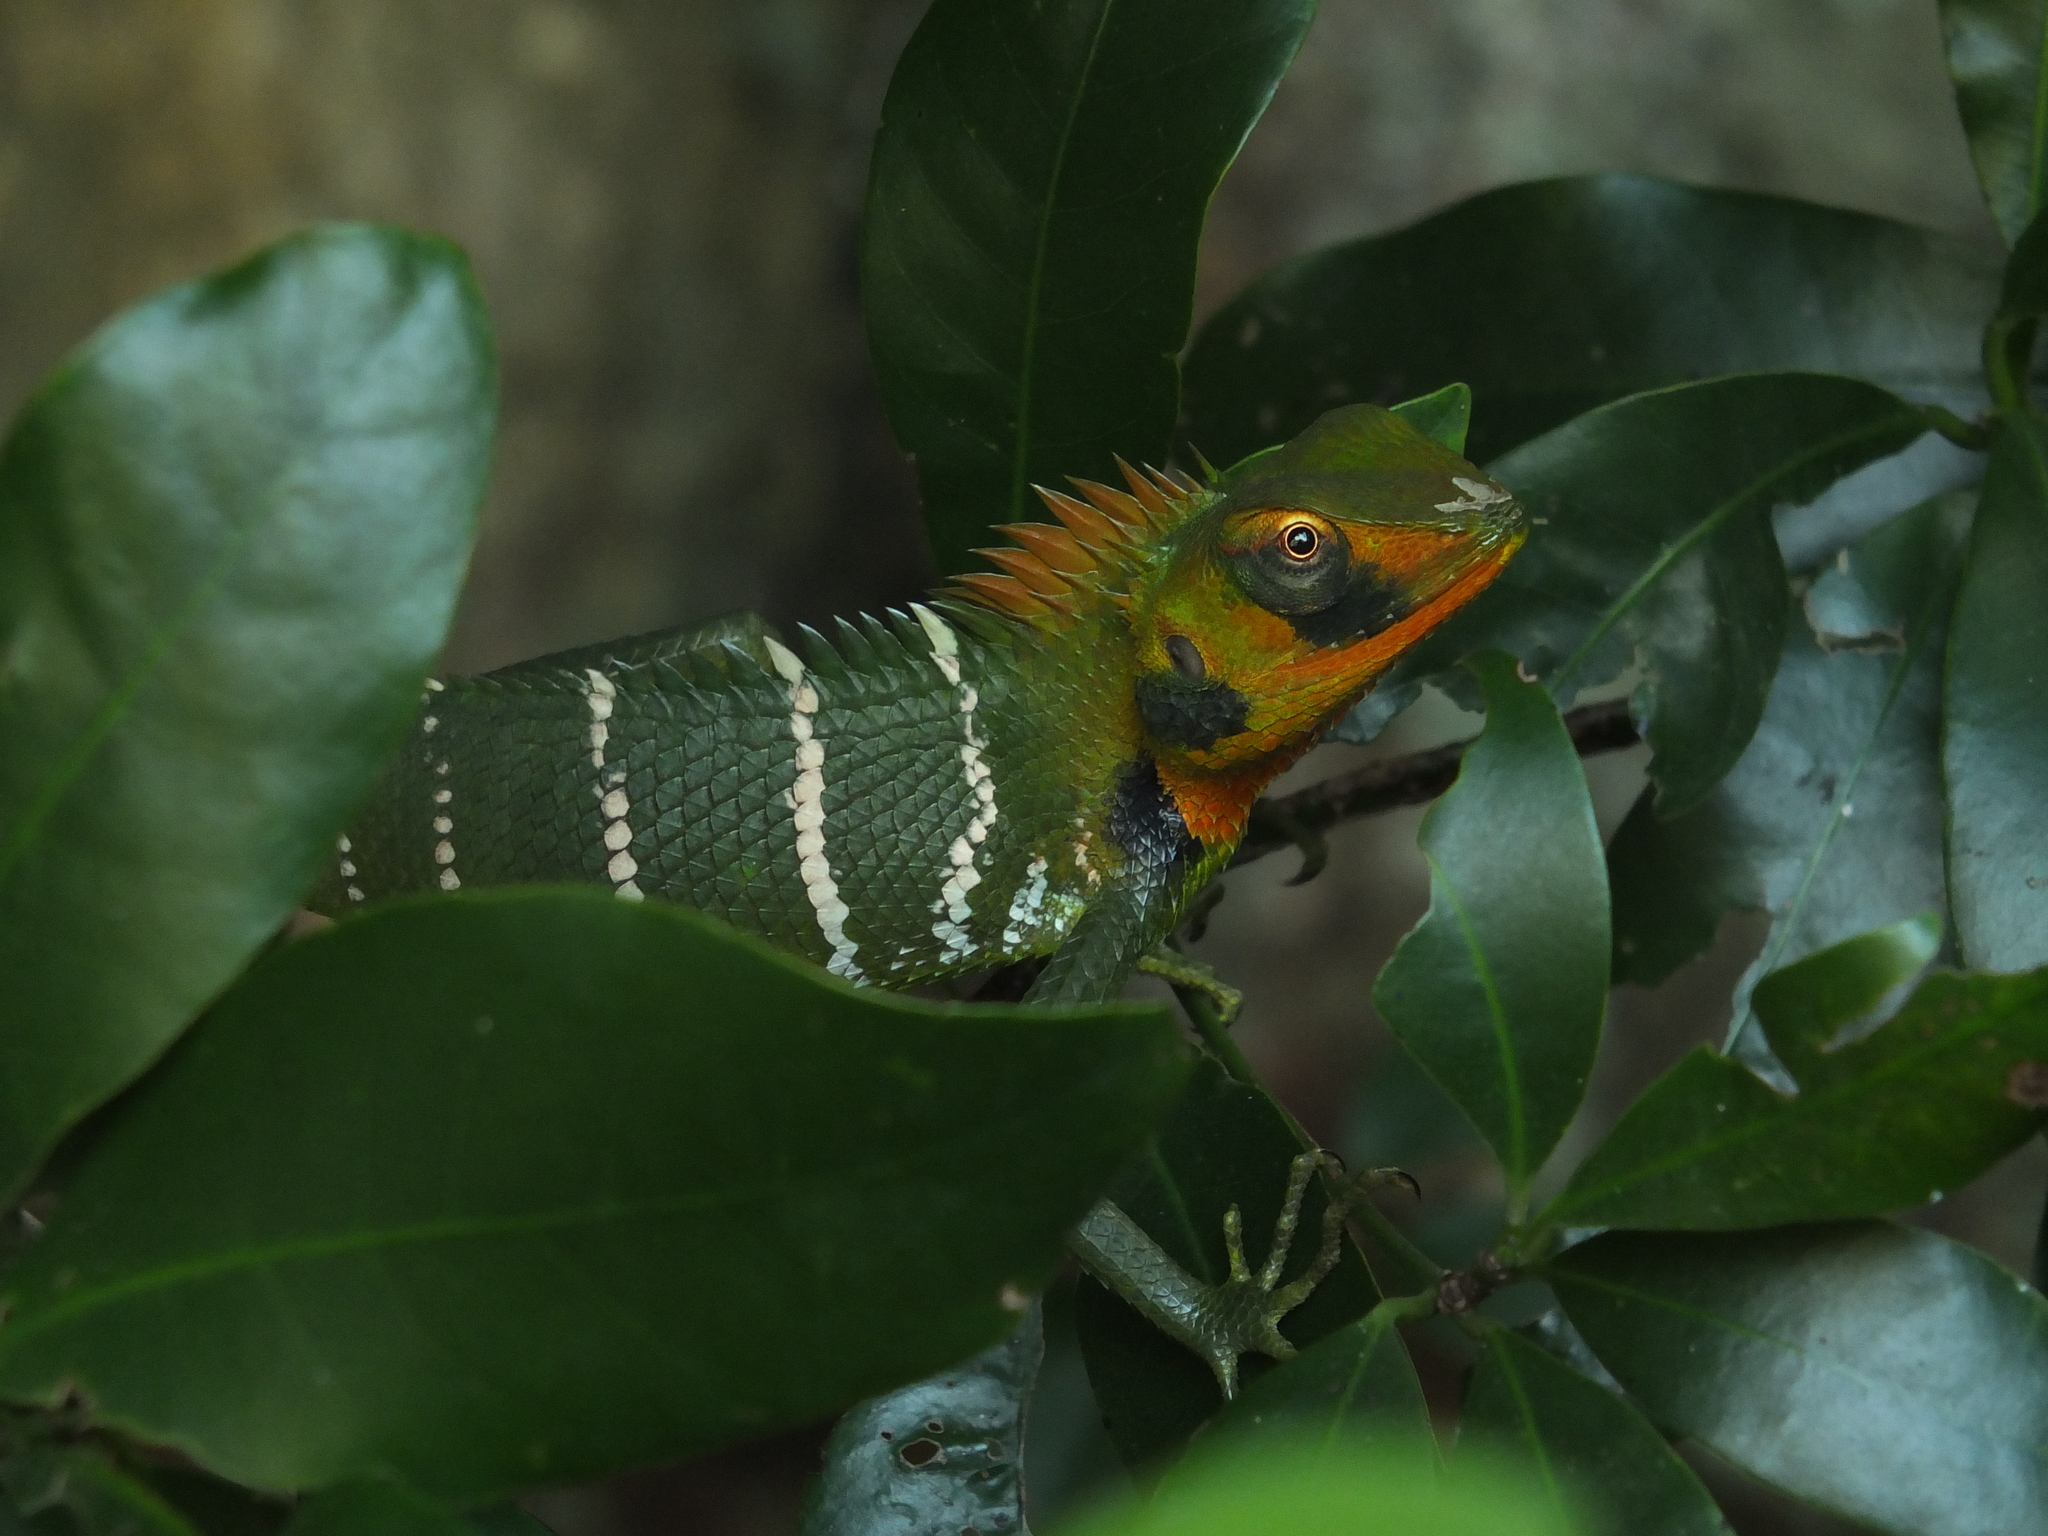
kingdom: Animalia
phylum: Chordata
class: Squamata
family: Agamidae
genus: Calotes
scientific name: Calotes calotes
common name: Common green forest lizard
